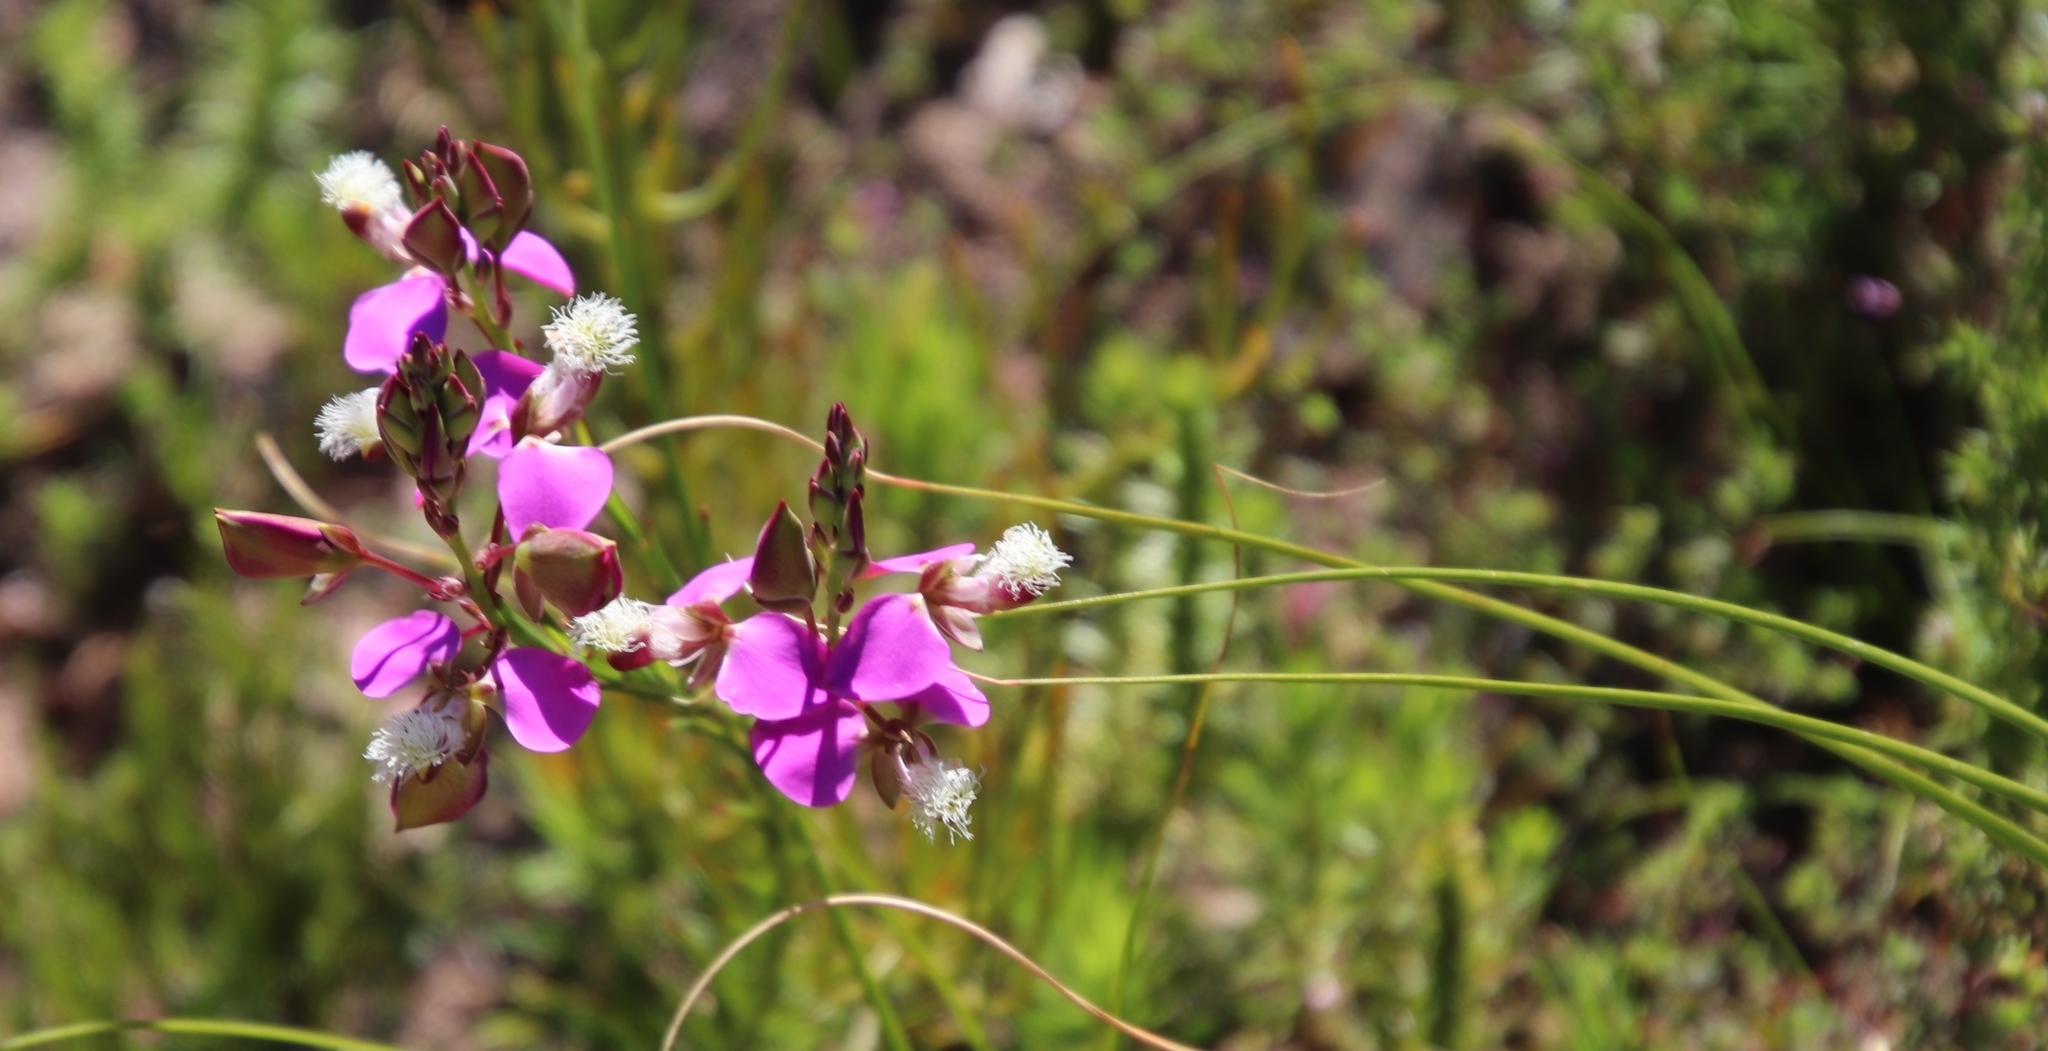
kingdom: Plantae
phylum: Tracheophyta
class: Magnoliopsida
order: Fabales
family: Polygalaceae
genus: Polygala
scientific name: Polygala bracteolata
